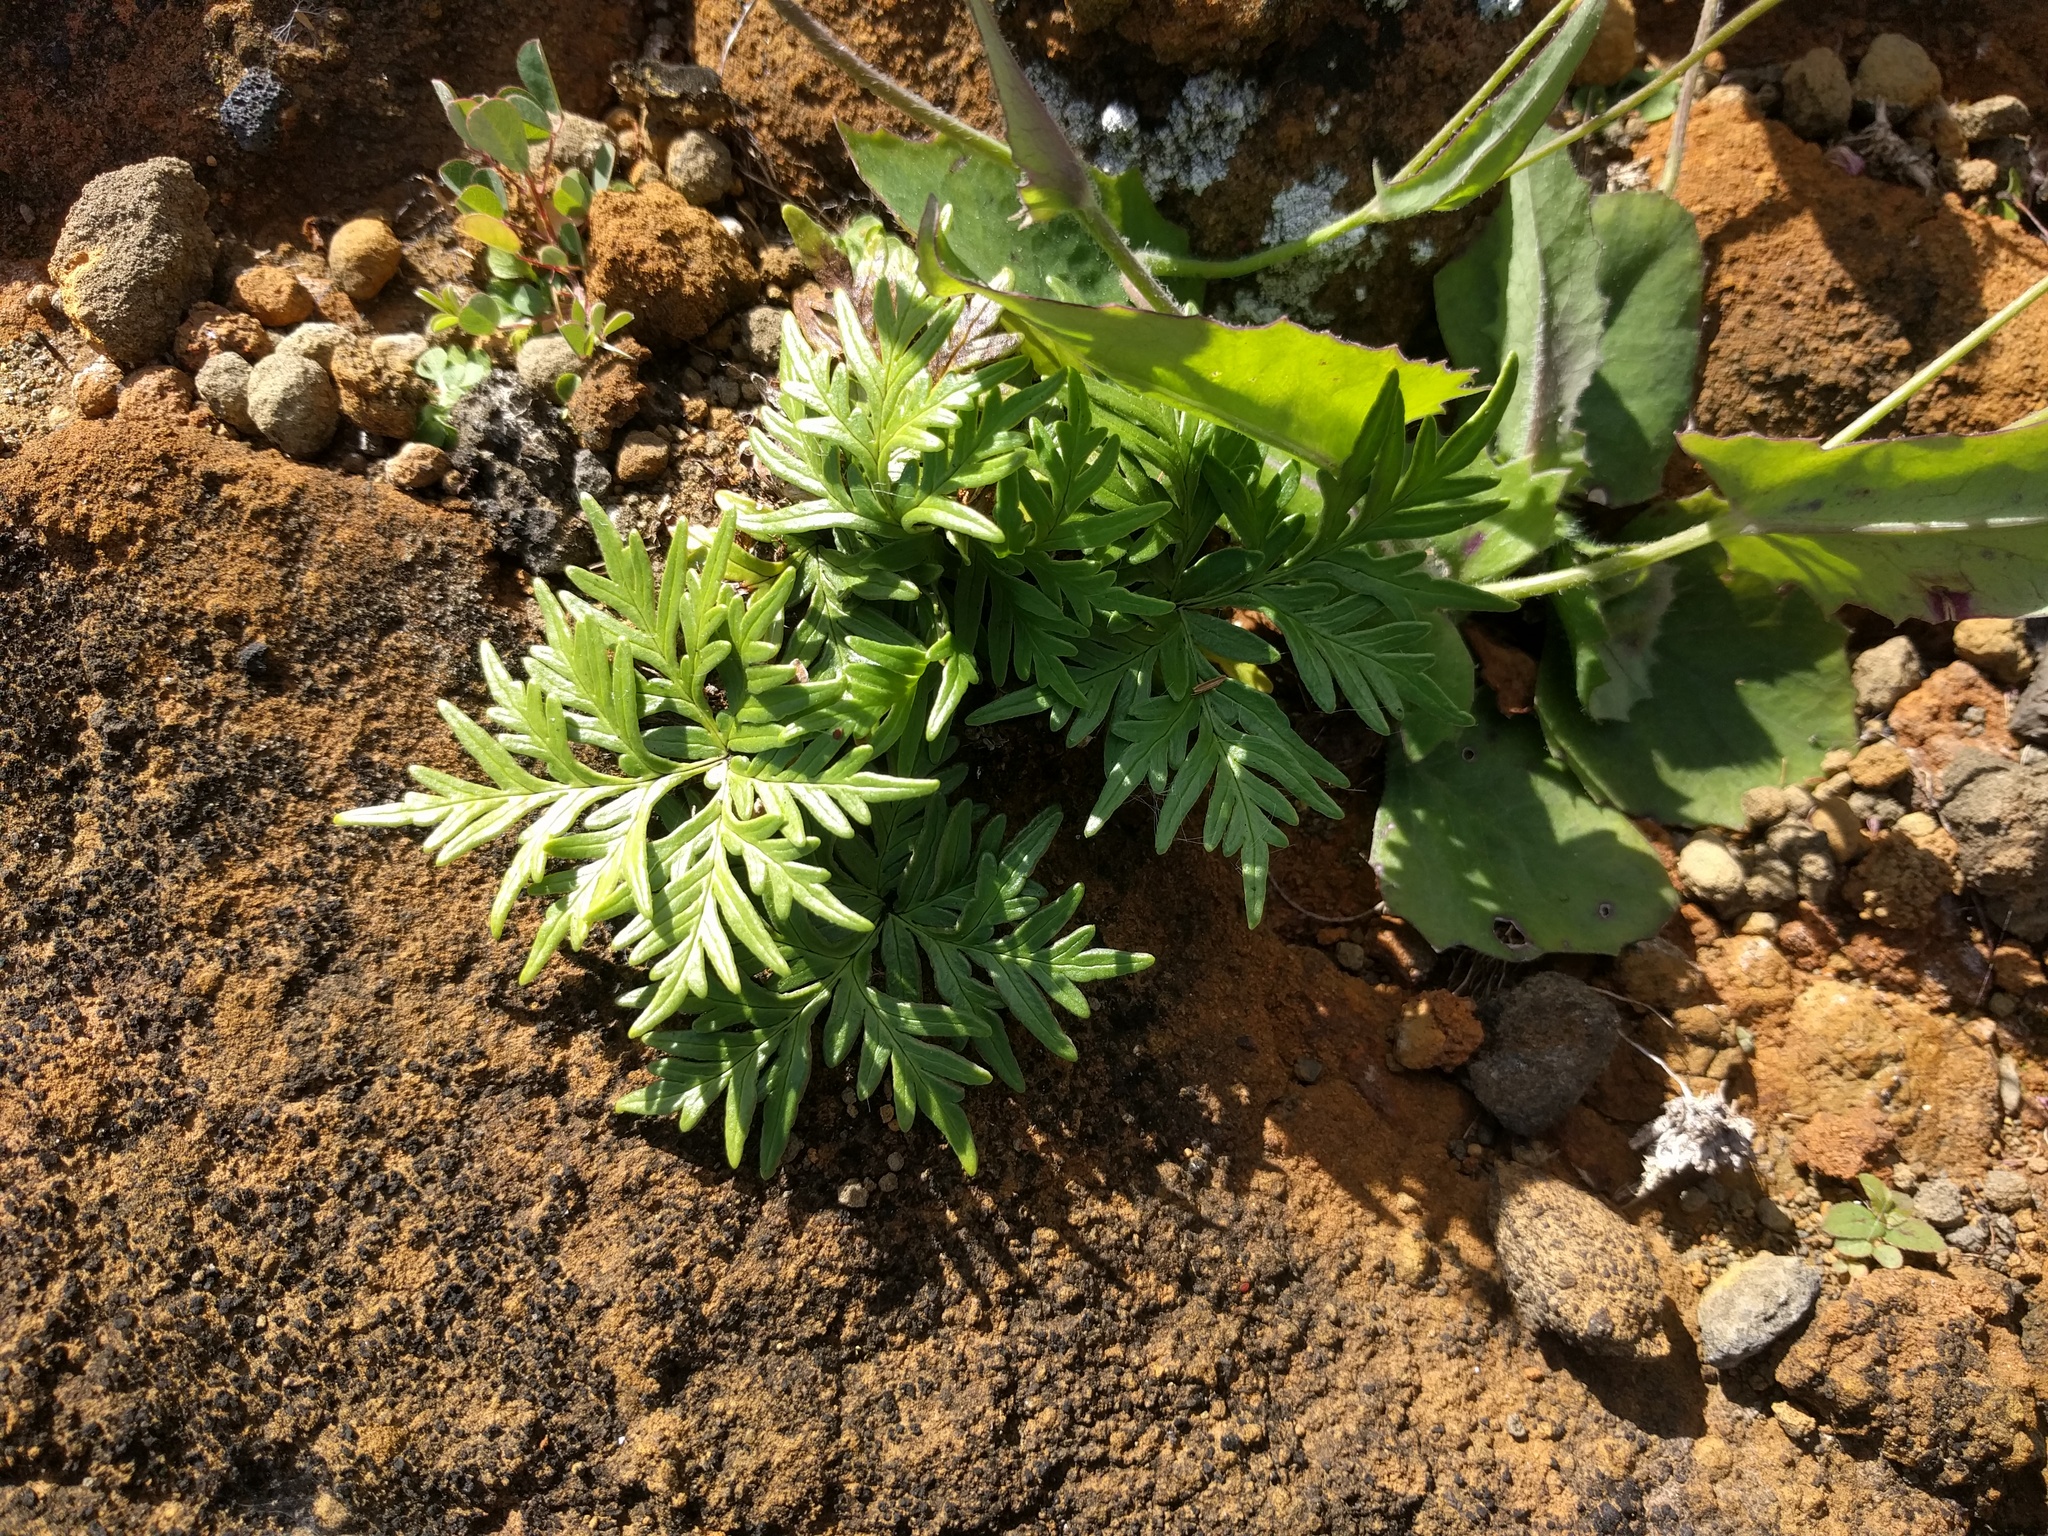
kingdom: Plantae
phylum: Tracheophyta
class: Polypodiopsida
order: Polypodiales
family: Pteridaceae
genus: Doryopteris
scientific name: Doryopteris decipiens
